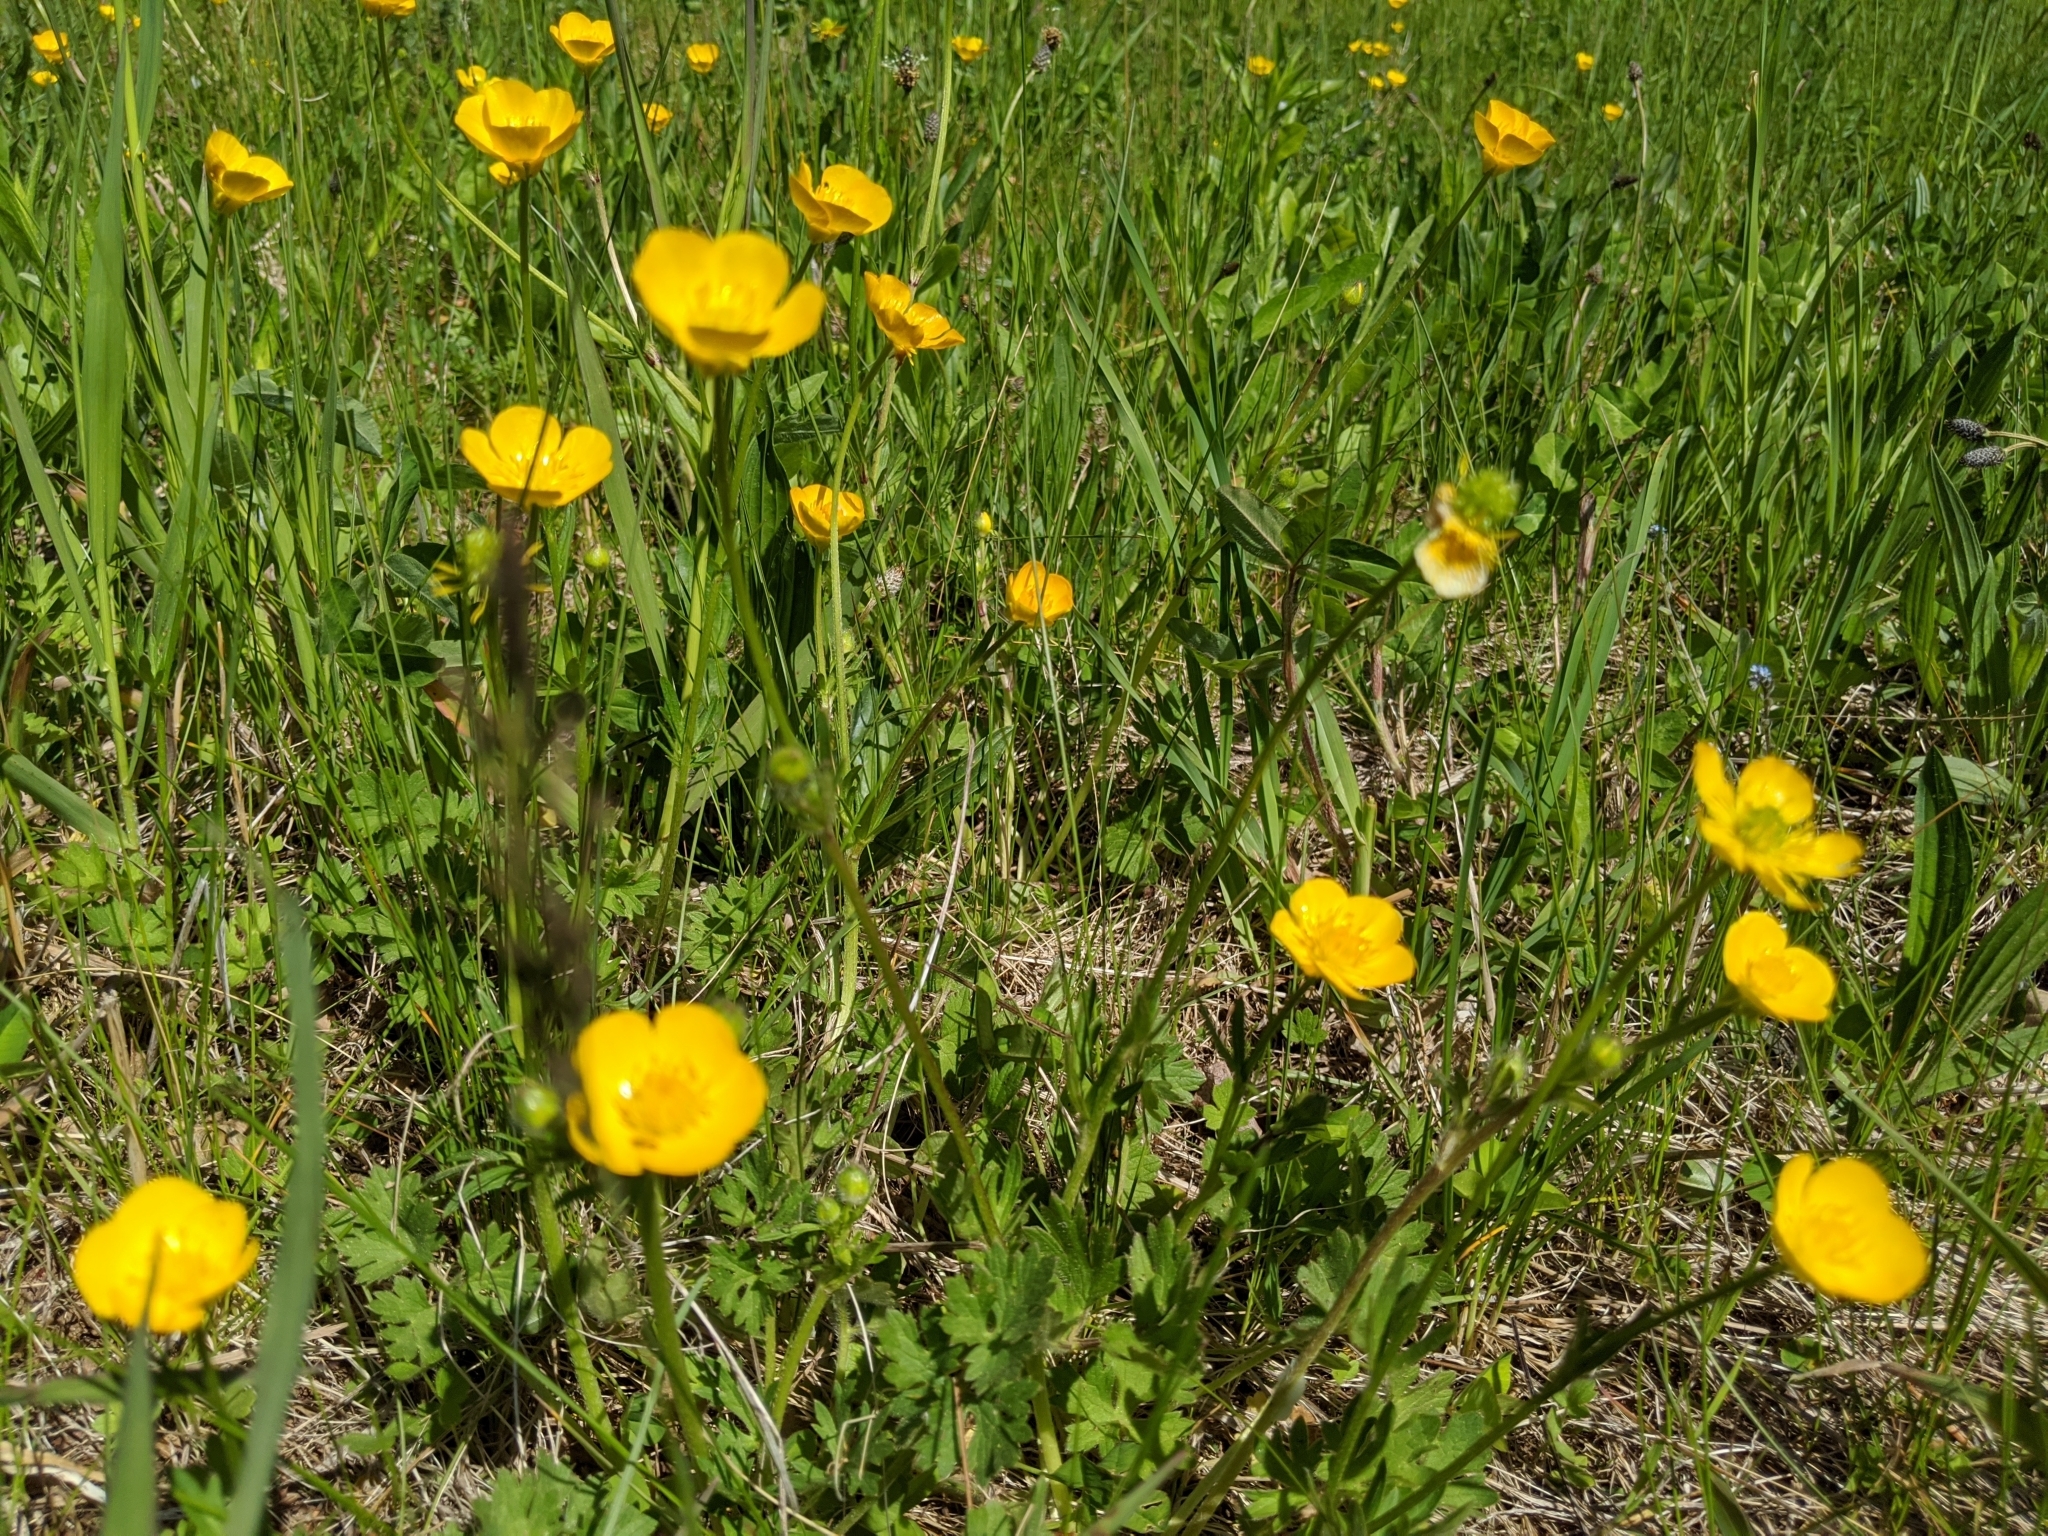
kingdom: Plantae
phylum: Tracheophyta
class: Magnoliopsida
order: Ranunculales
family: Ranunculaceae
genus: Ranunculus
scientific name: Ranunculus bulbosus
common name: Bulbous buttercup
